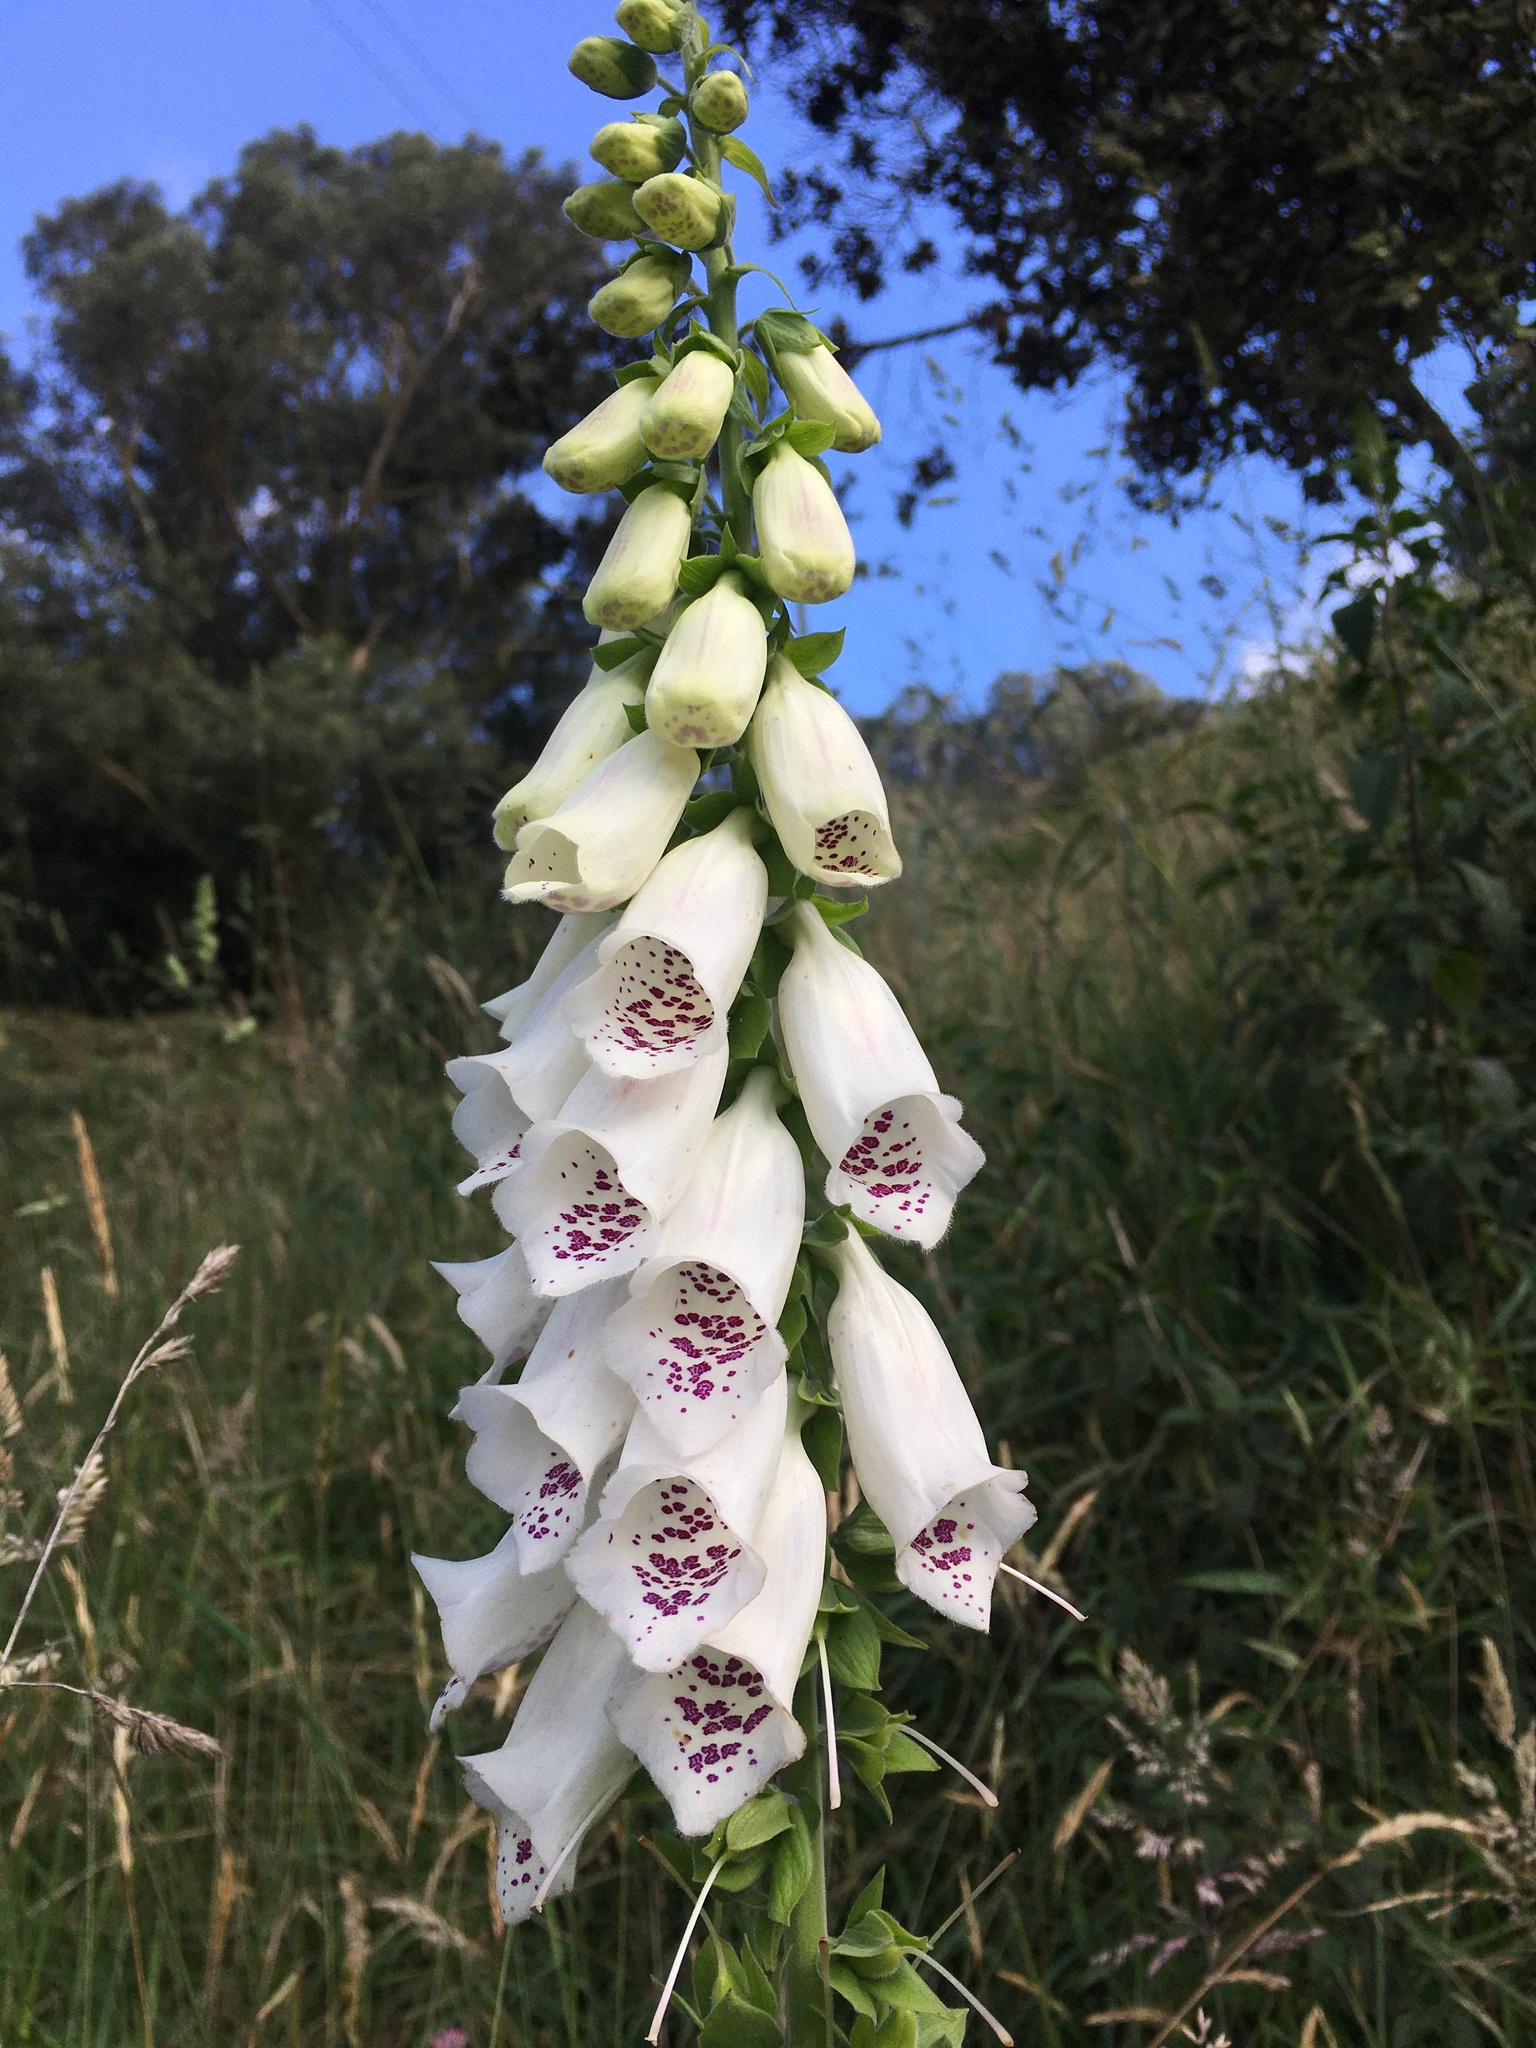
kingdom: Plantae
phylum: Tracheophyta
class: Magnoliopsida
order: Lamiales
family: Plantaginaceae
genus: Digitalis
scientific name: Digitalis purpurea
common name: Foxglove
